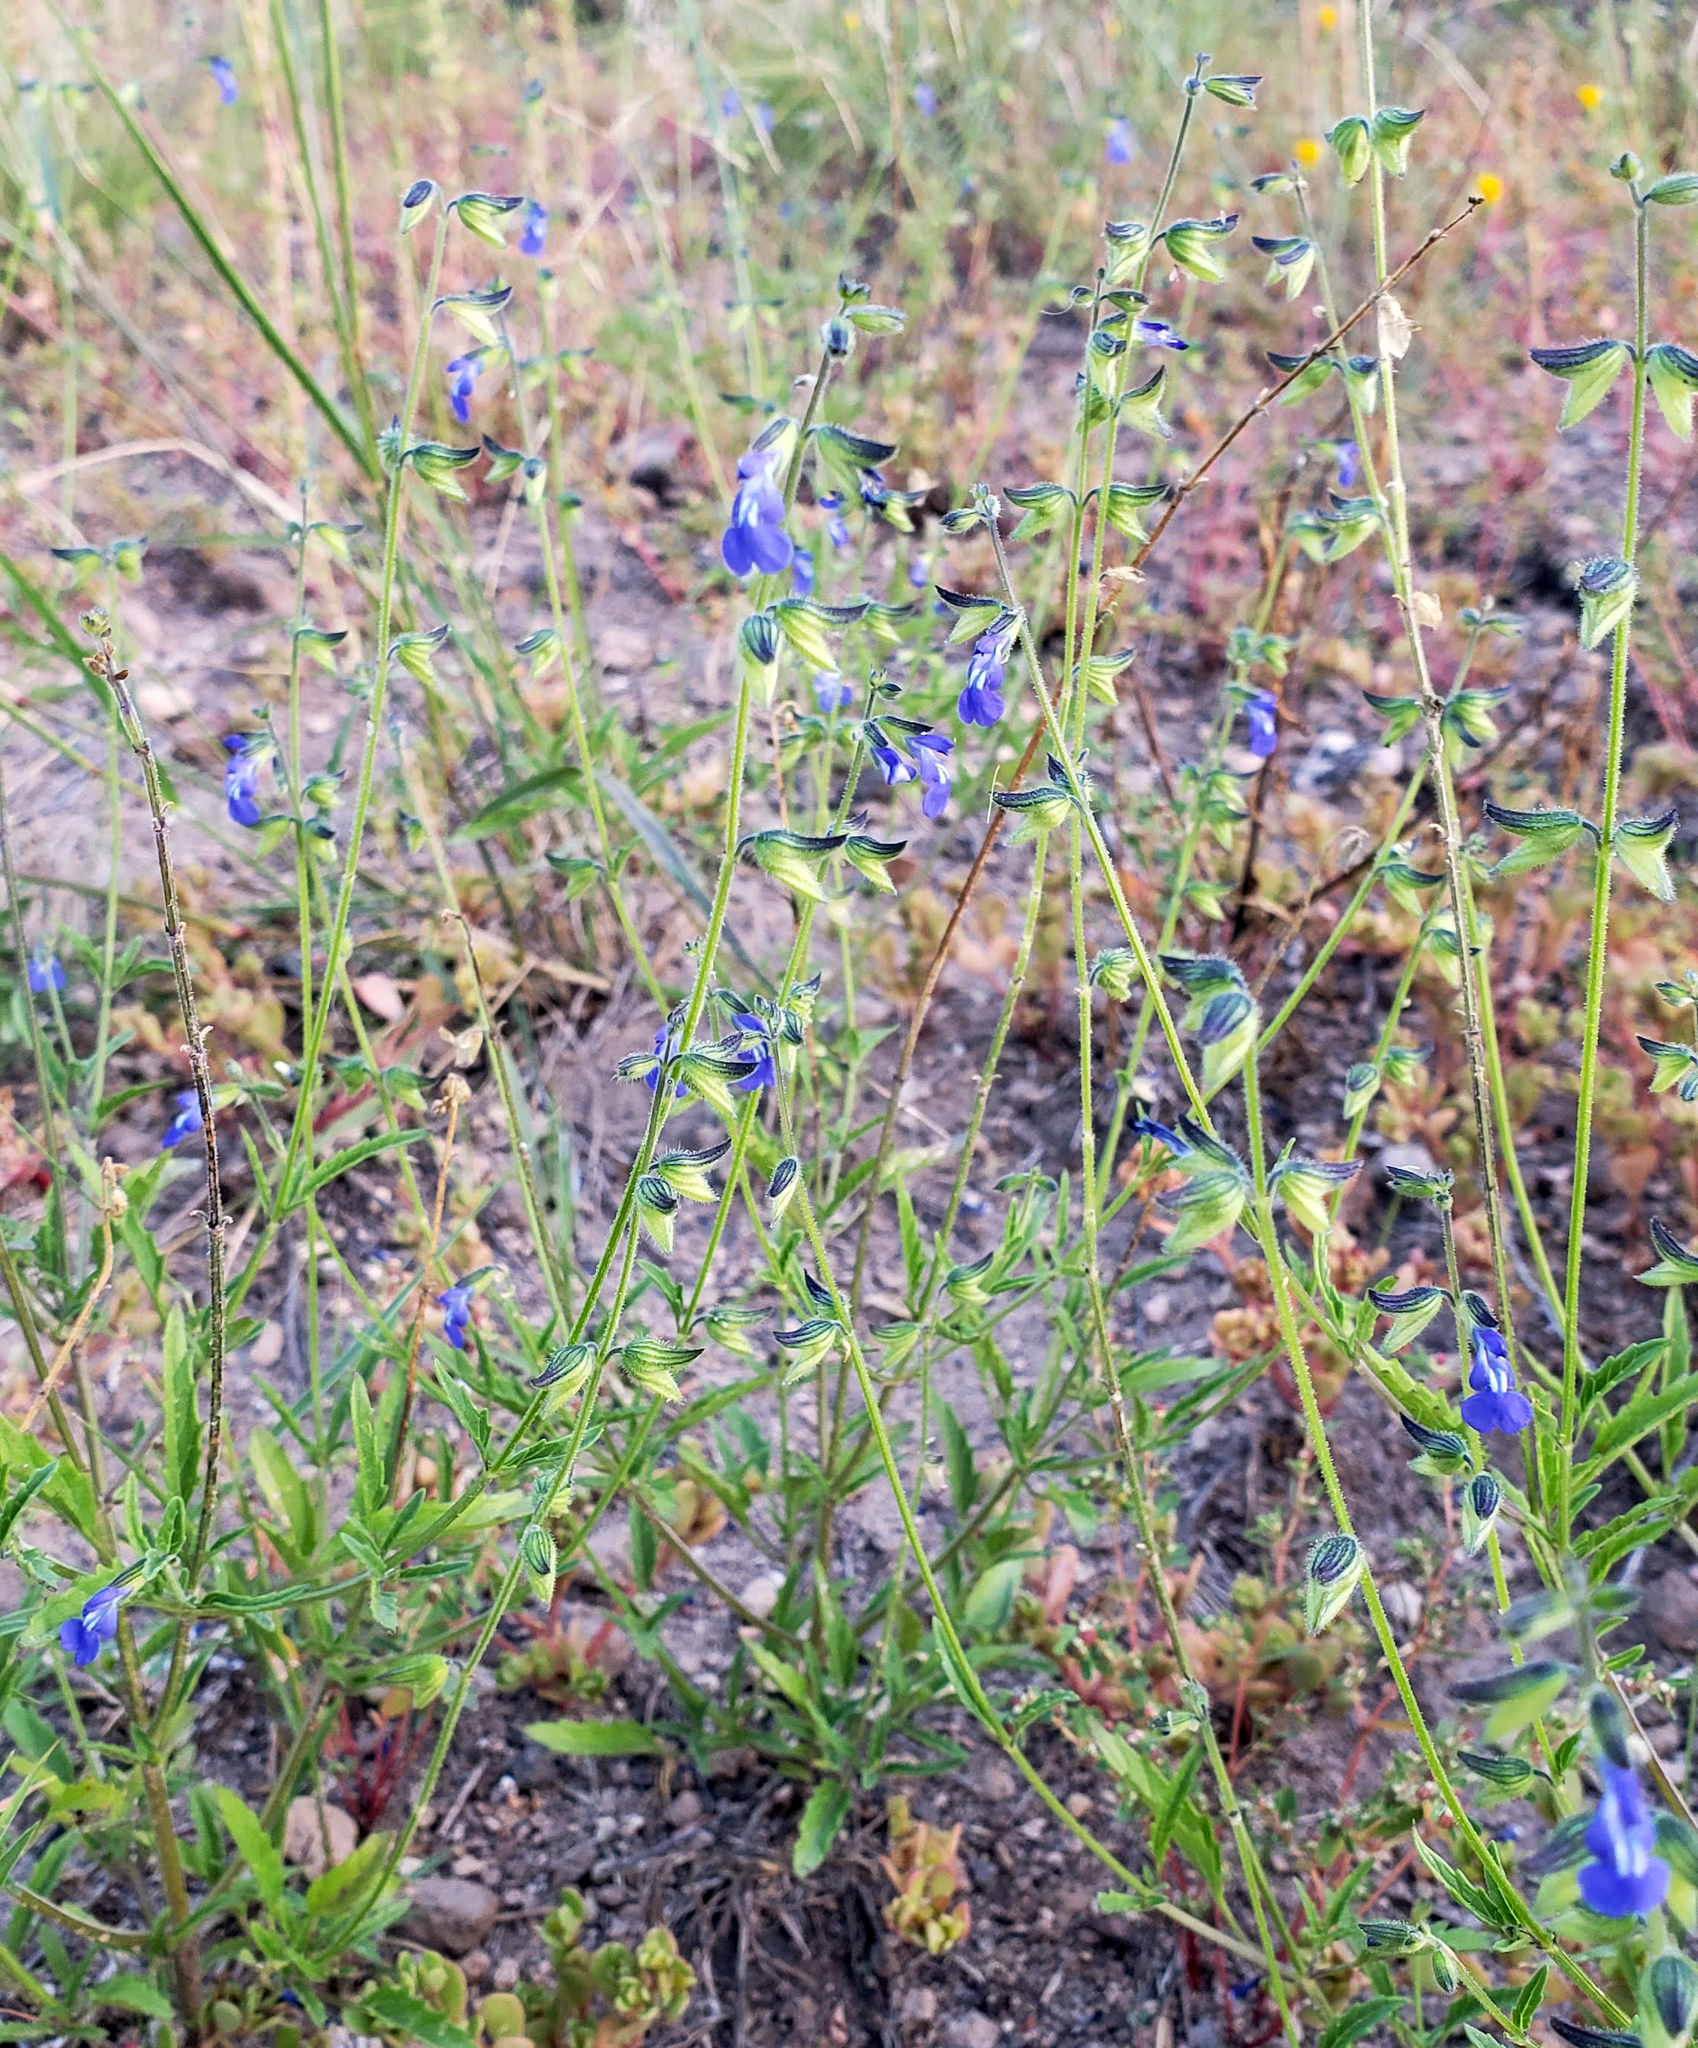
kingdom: Plantae
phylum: Tracheophyta
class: Magnoliopsida
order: Lamiales
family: Lamiaceae
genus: Salvia
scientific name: Salvia subincisa
